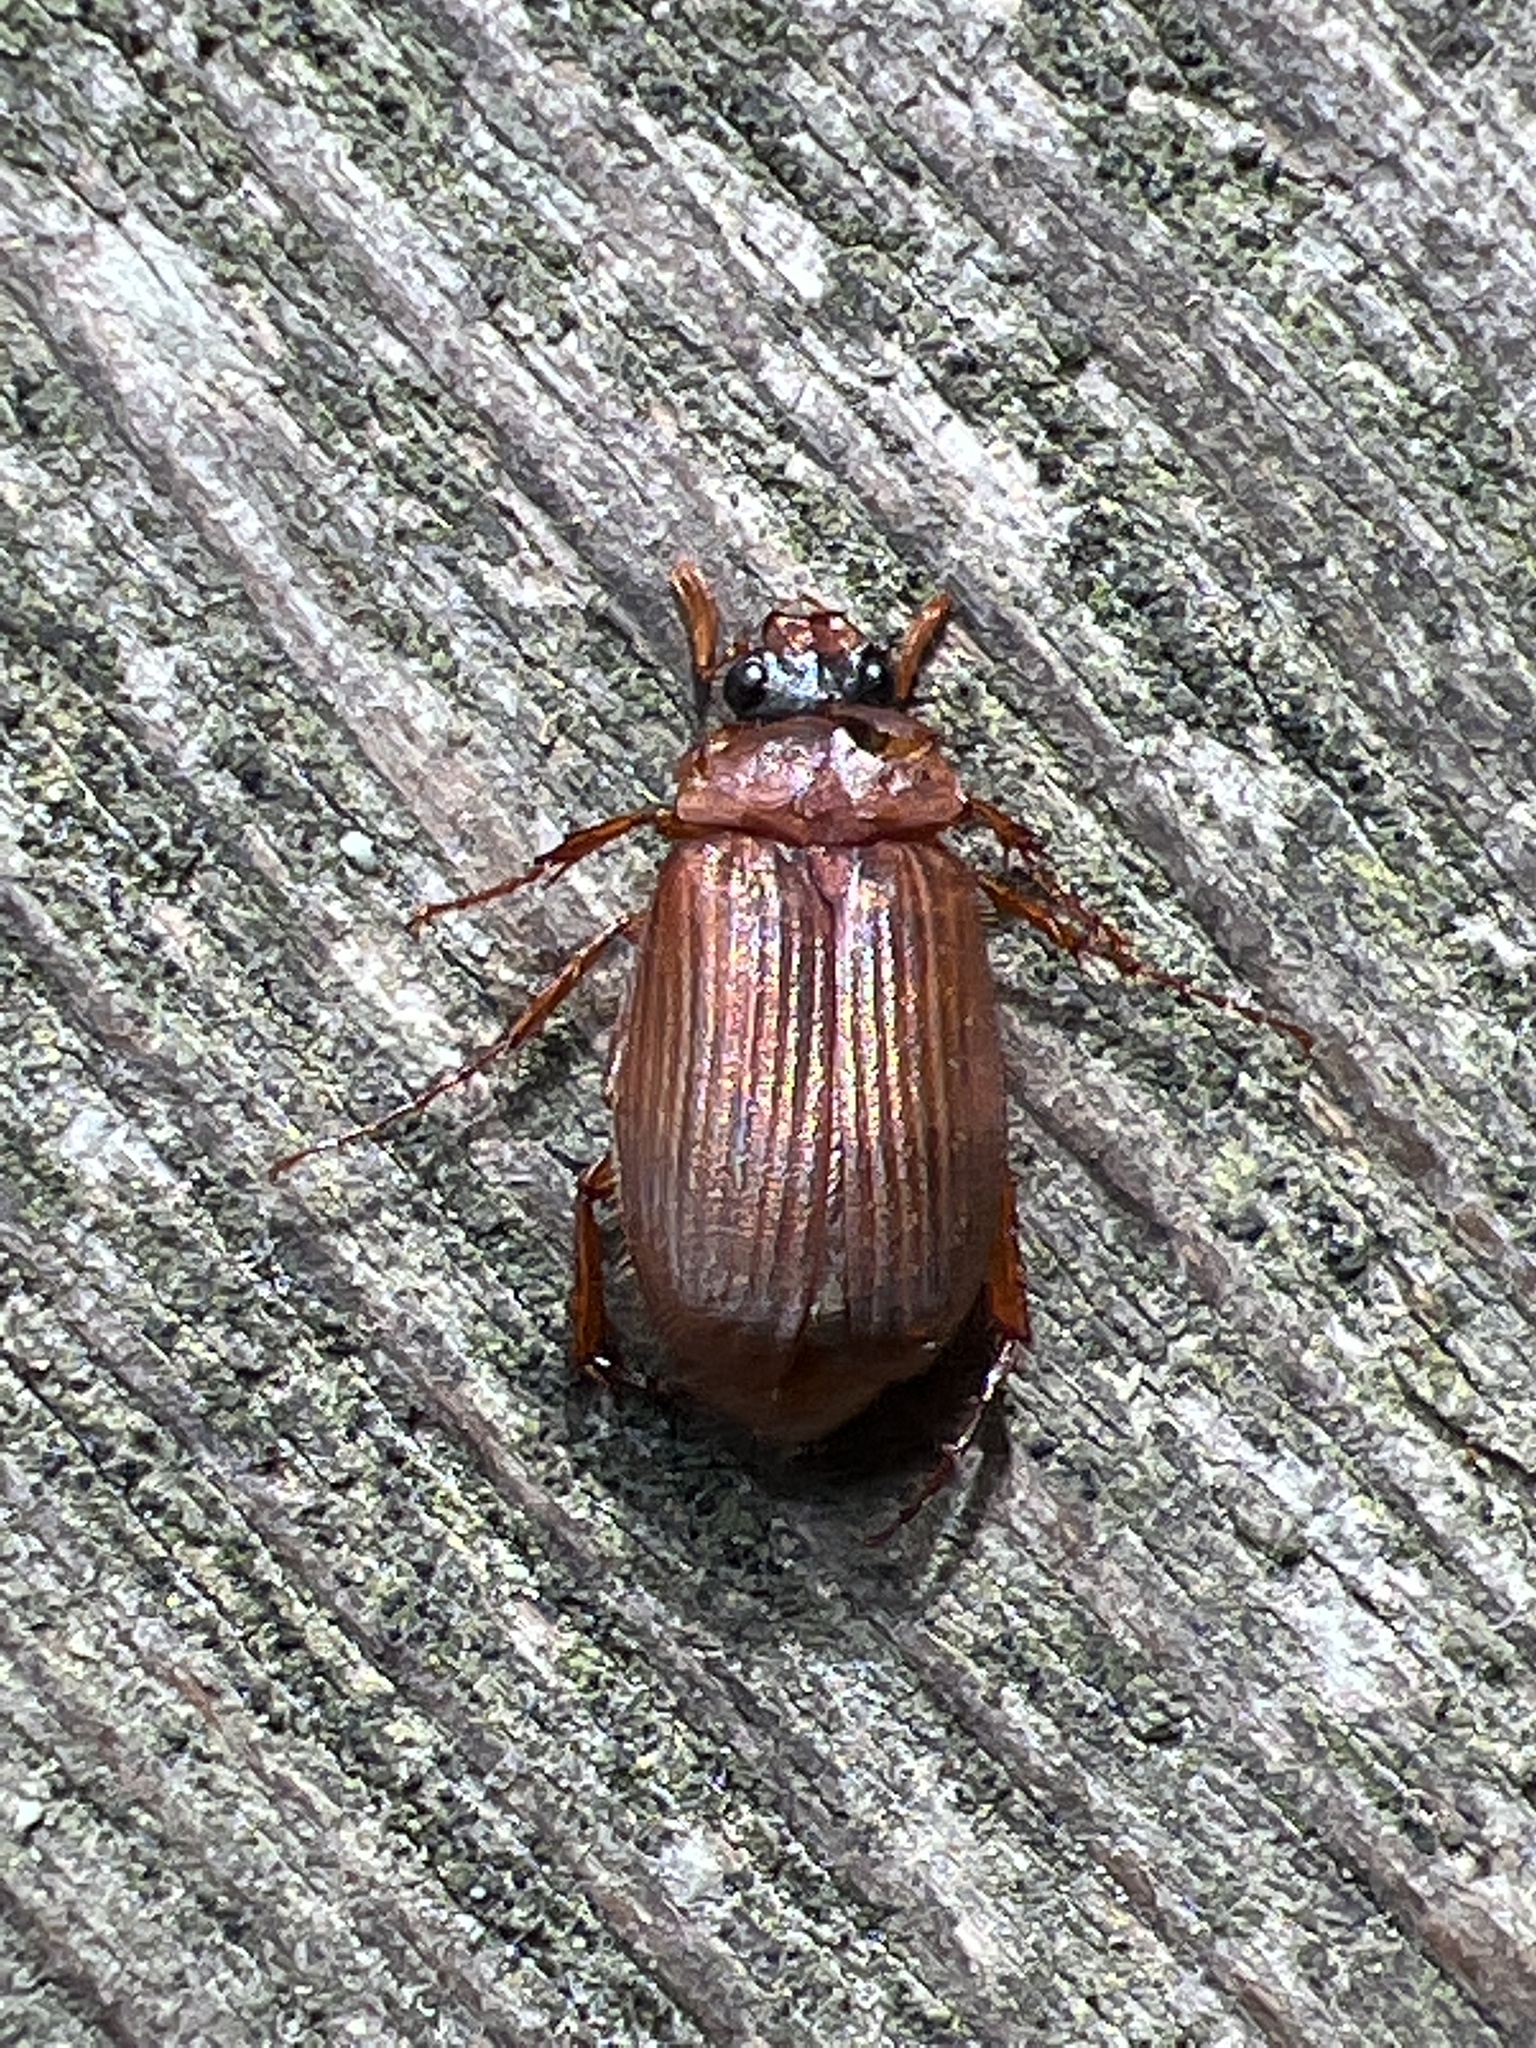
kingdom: Animalia
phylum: Arthropoda
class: Insecta
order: Coleoptera
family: Scarabaeidae
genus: Serica
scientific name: Serica brunnea
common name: Brown chafer
